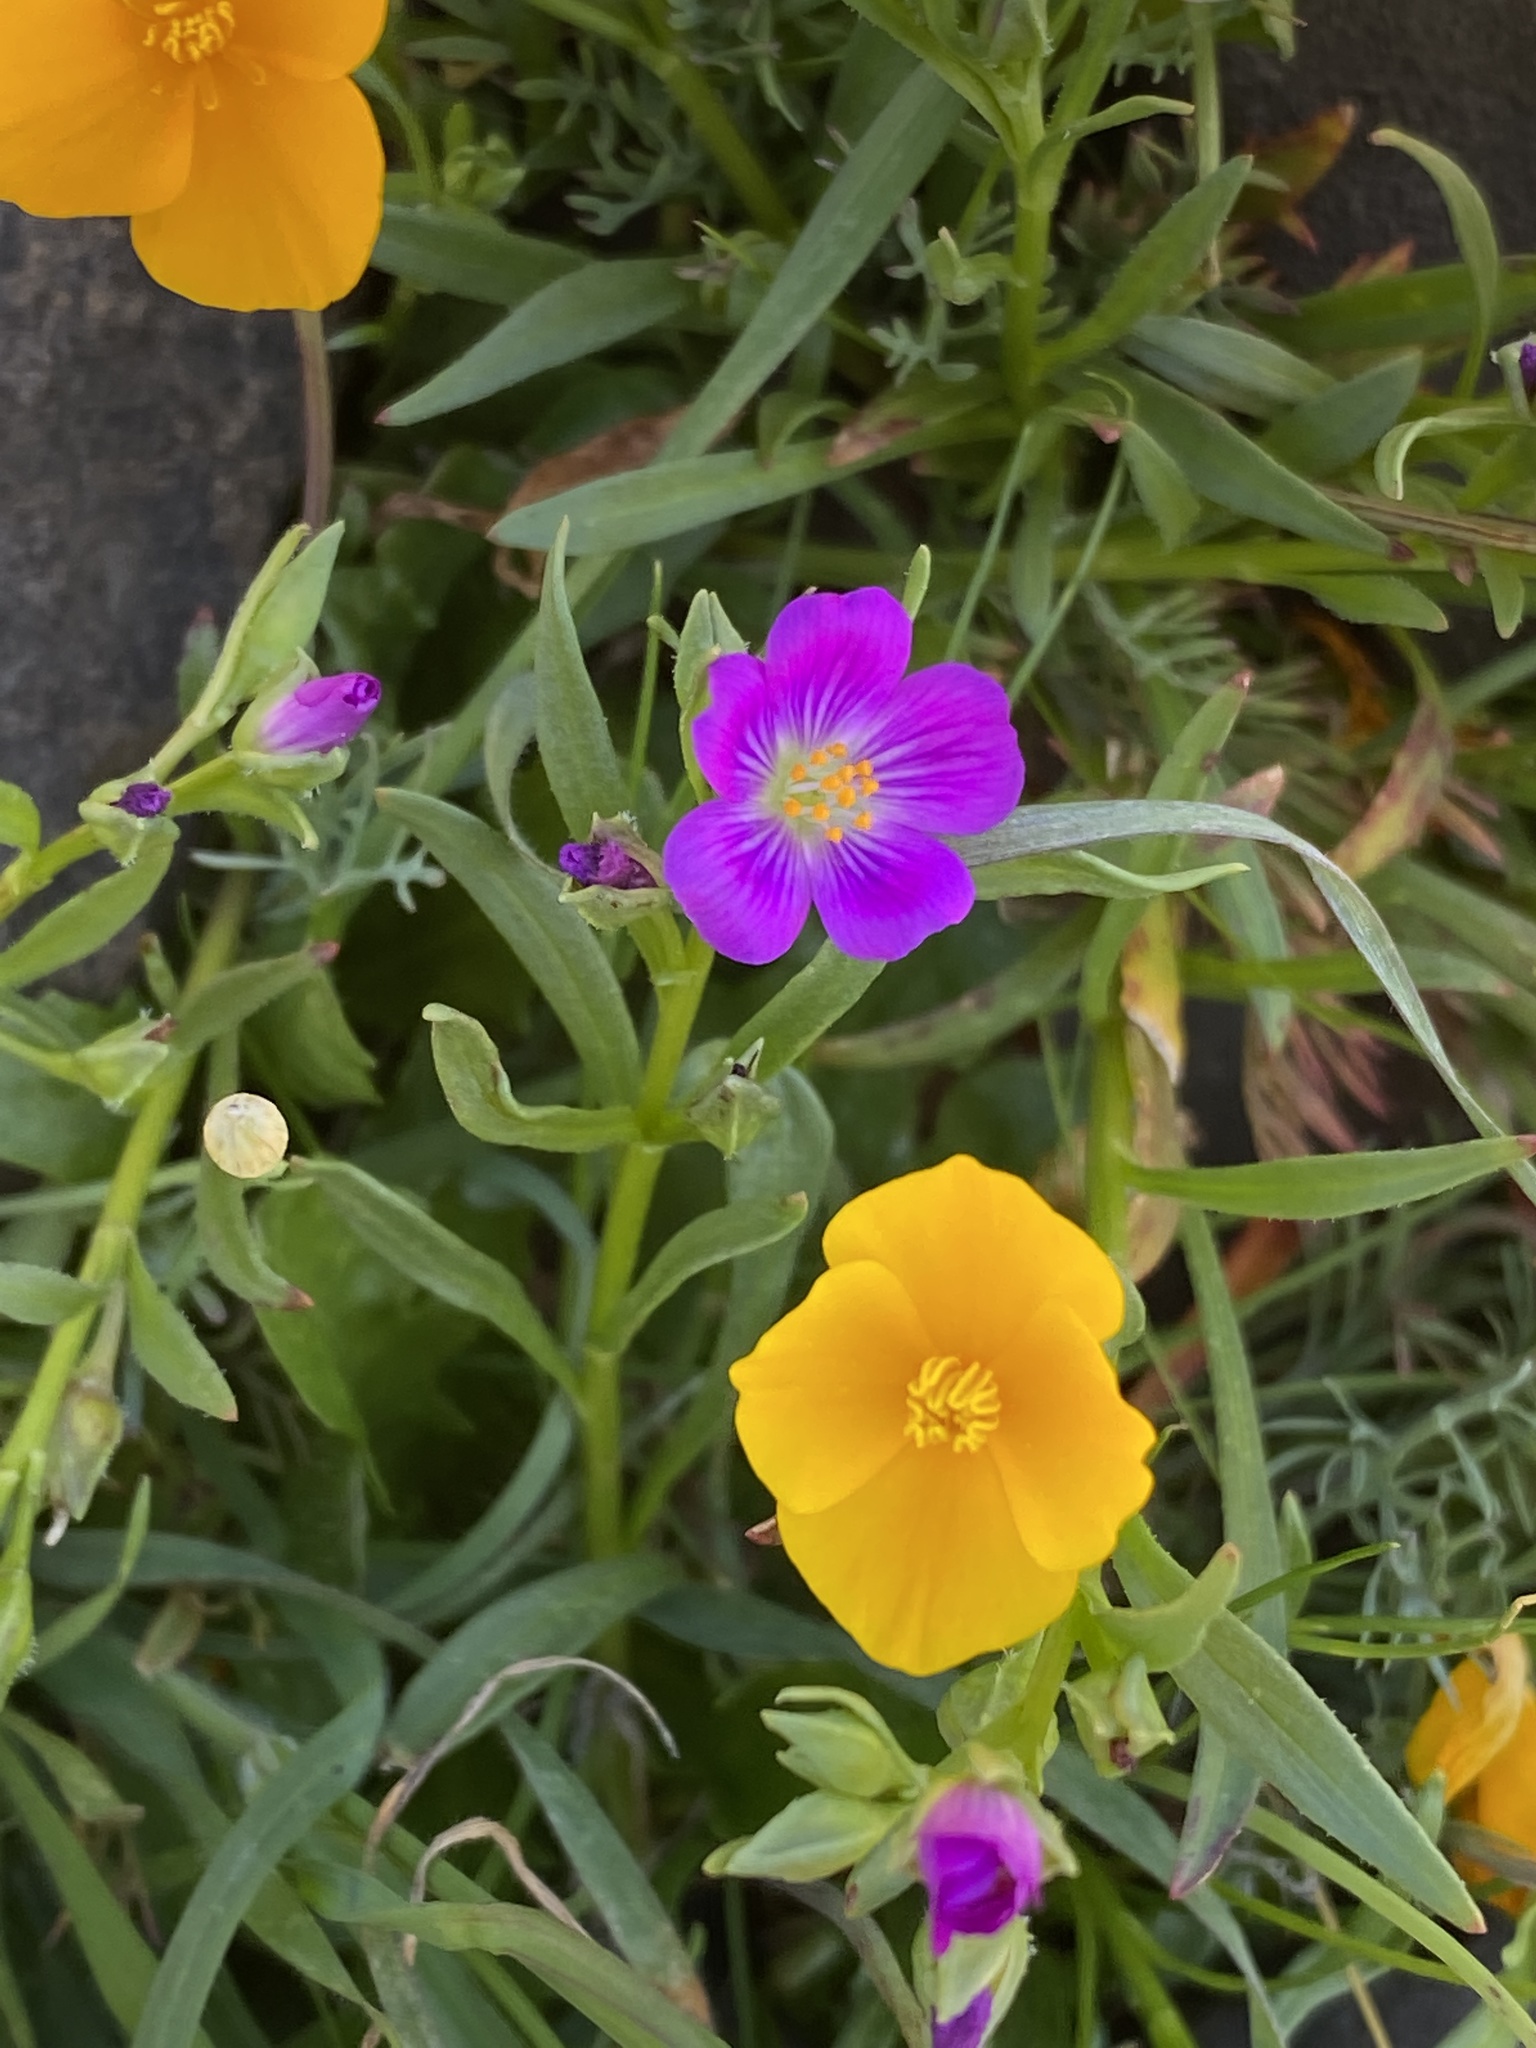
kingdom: Plantae
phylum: Tracheophyta
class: Magnoliopsida
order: Caryophyllales
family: Montiaceae
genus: Calandrinia
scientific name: Calandrinia menziesii
